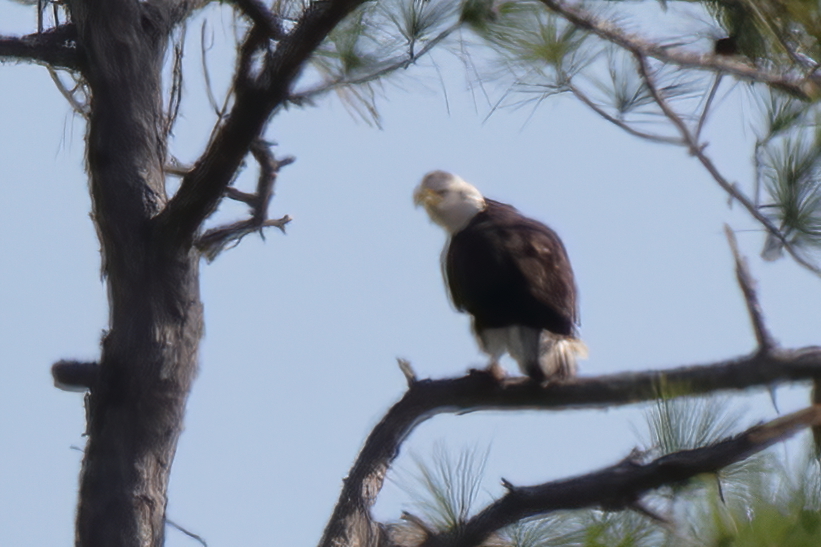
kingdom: Animalia
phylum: Chordata
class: Aves
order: Accipitriformes
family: Accipitridae
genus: Haliaeetus
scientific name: Haliaeetus leucocephalus
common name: Bald eagle
